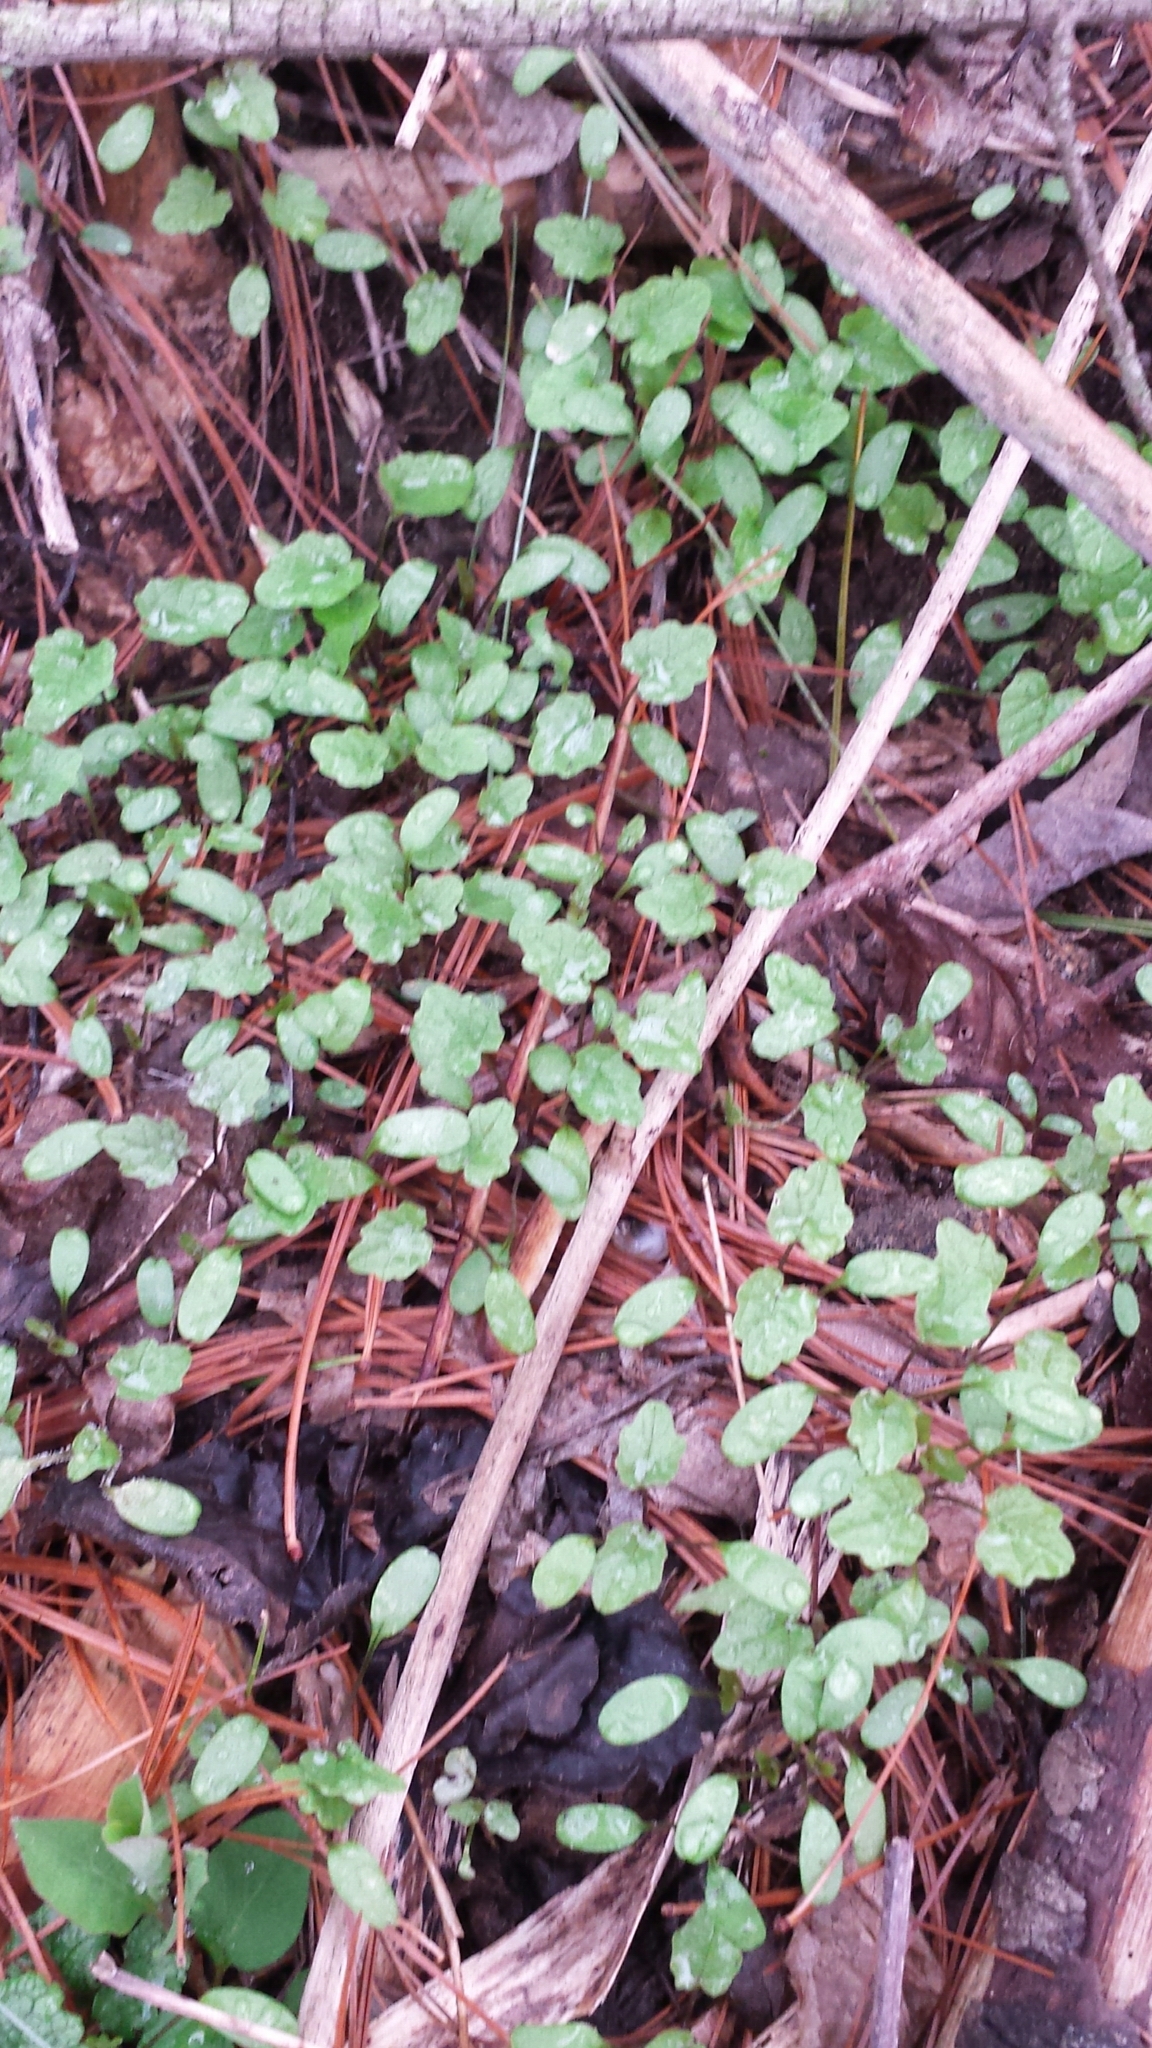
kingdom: Plantae
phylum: Tracheophyta
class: Magnoliopsida
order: Brassicales
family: Brassicaceae
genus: Alliaria
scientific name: Alliaria petiolata
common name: Garlic mustard
